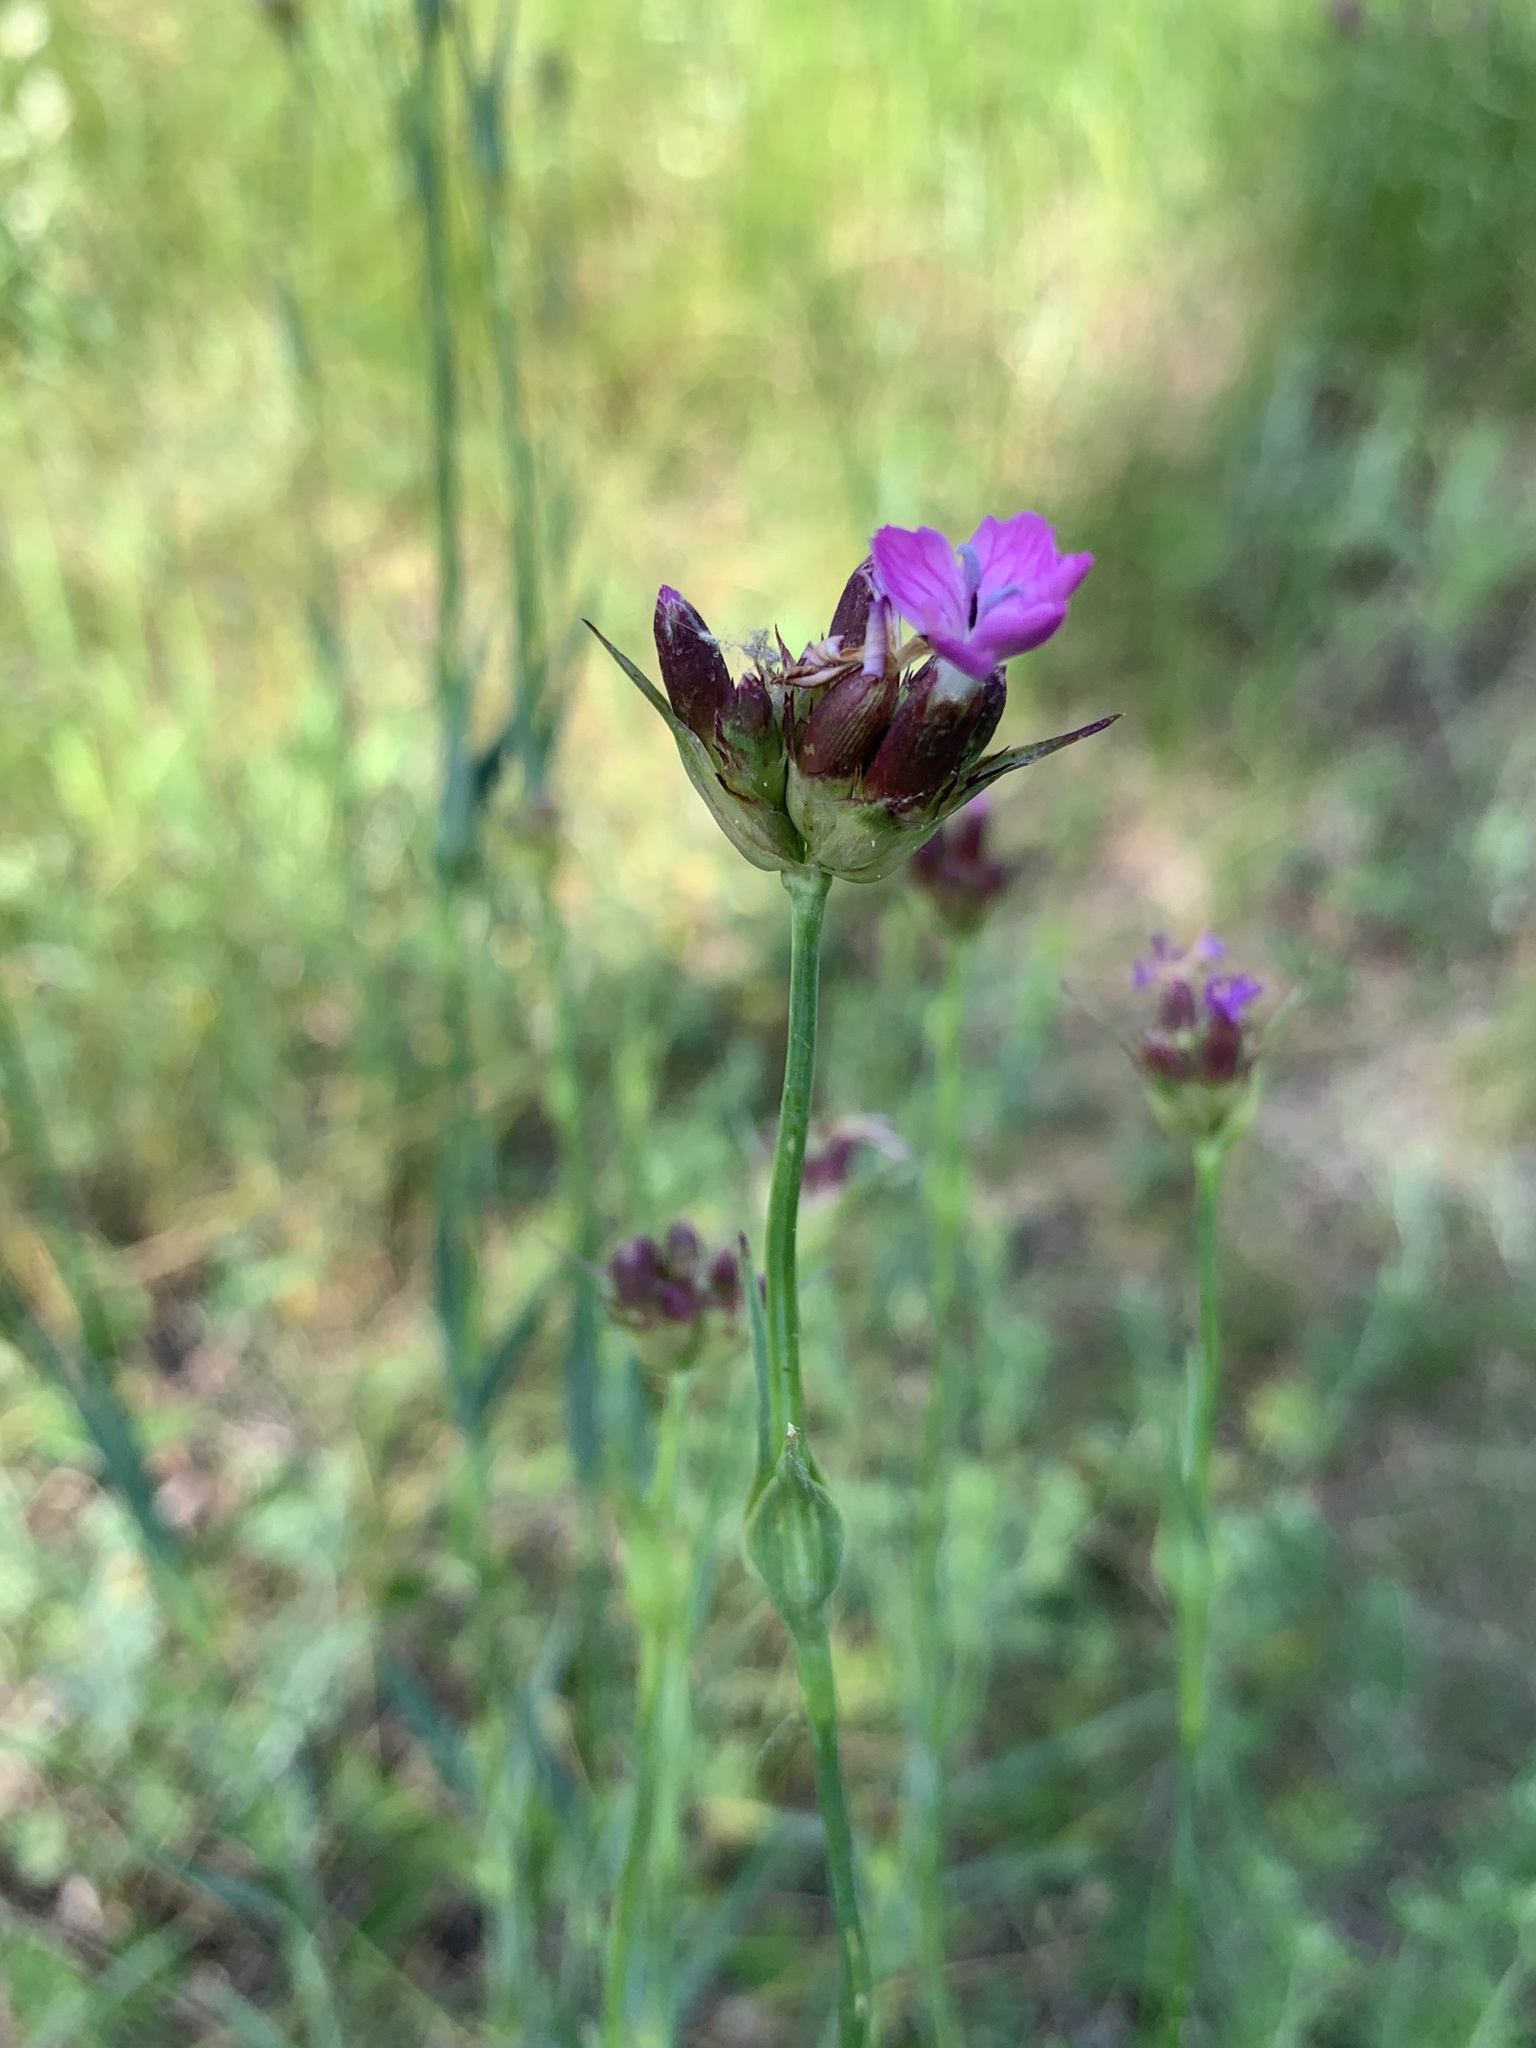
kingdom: Plantae
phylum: Tracheophyta
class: Magnoliopsida
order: Caryophyllales
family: Caryophyllaceae
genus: Dianthus
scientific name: Dianthus capitatus
